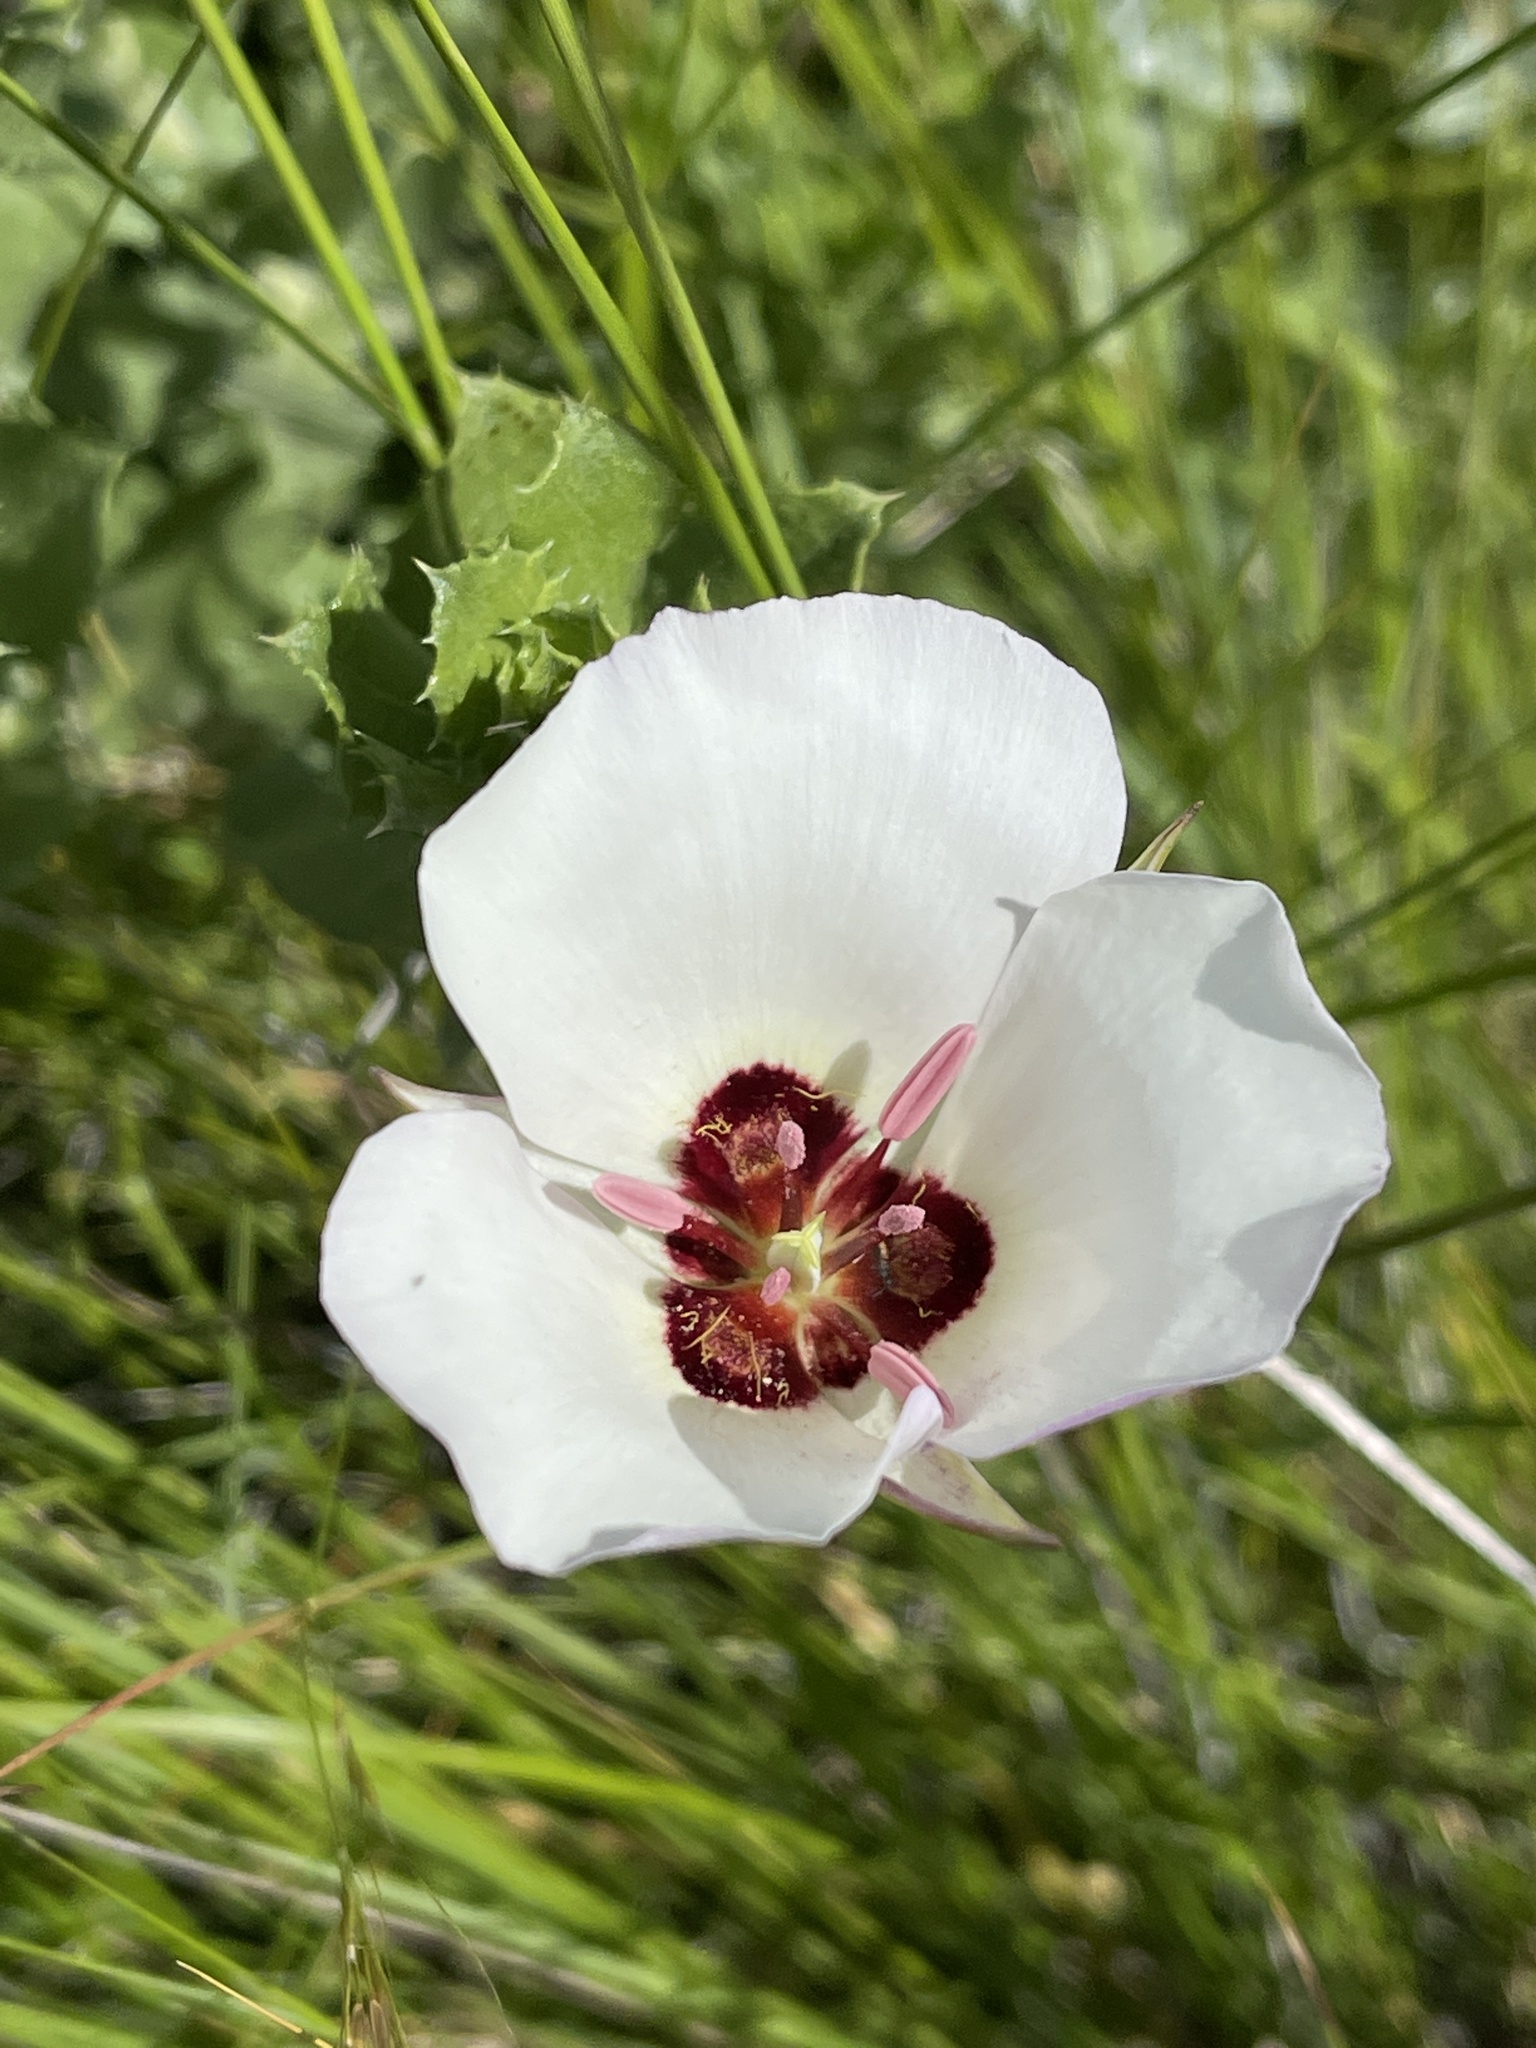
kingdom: Plantae
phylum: Tracheophyta
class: Liliopsida
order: Liliales
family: Liliaceae
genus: Calochortus
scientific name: Calochortus catalinae
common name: Catalina mariposa-lily
